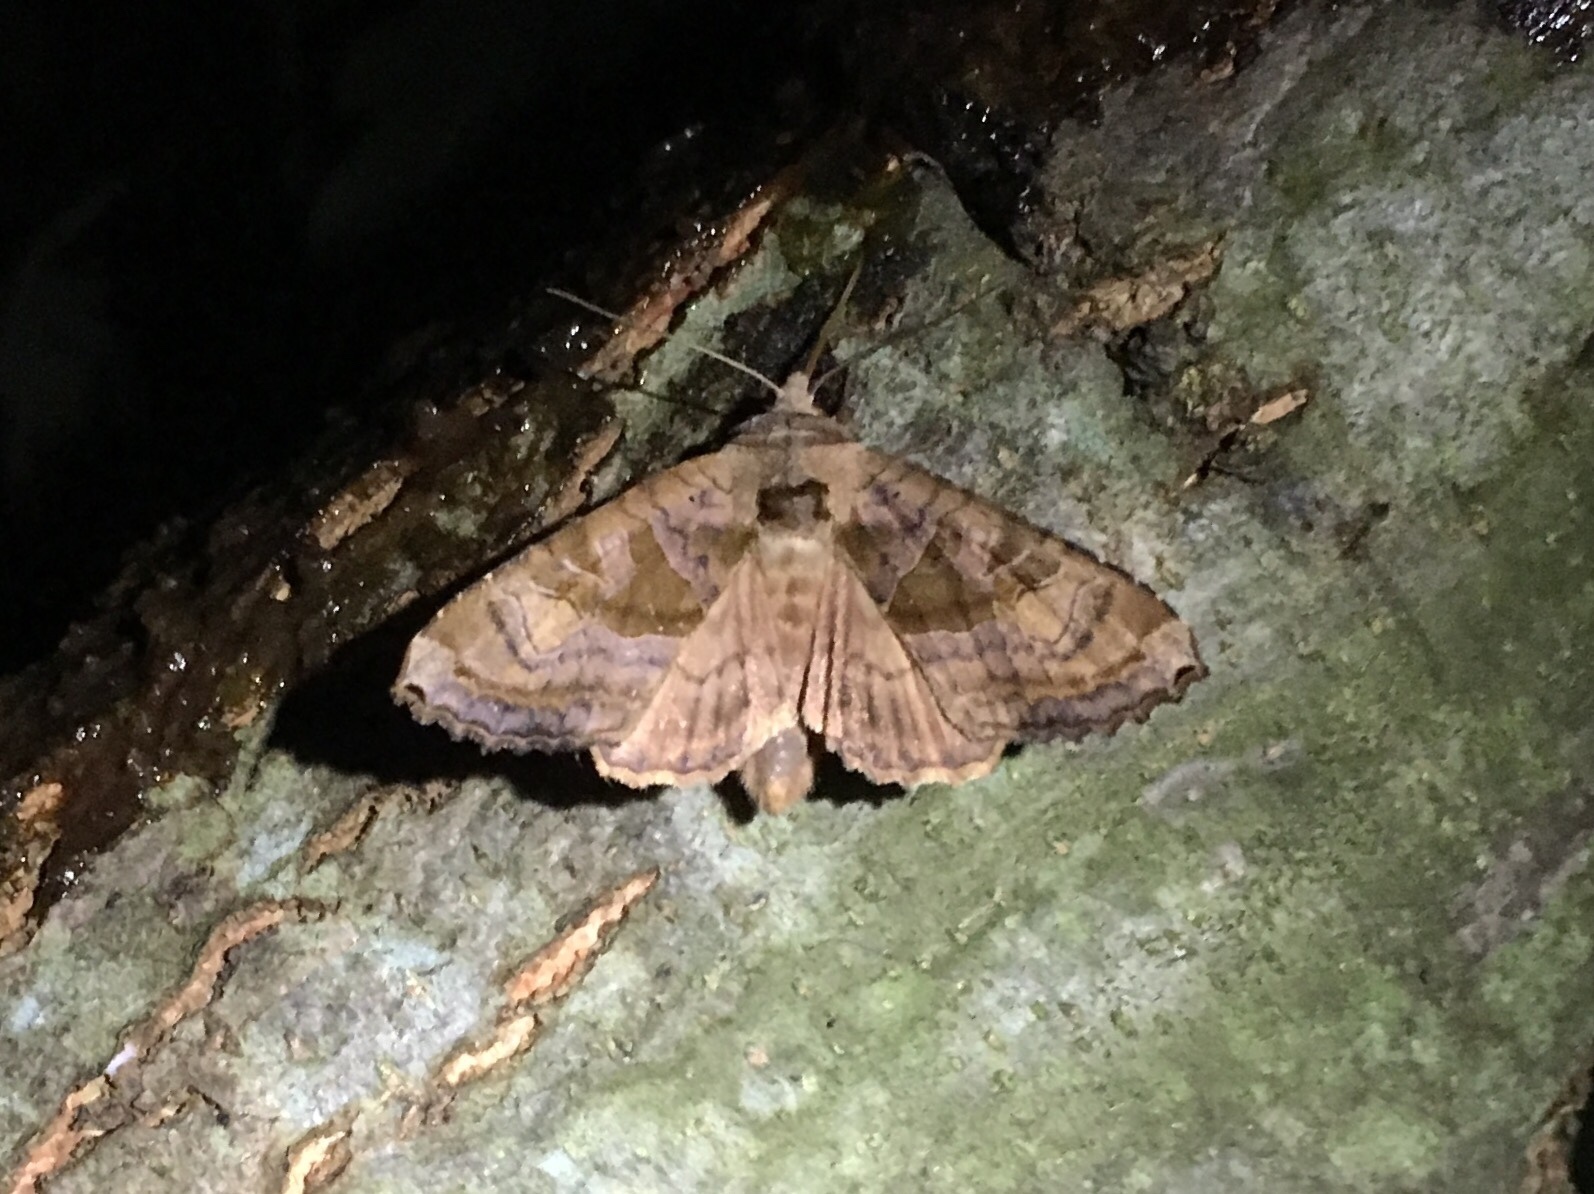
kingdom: Animalia
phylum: Arthropoda
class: Insecta
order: Lepidoptera
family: Noctuidae
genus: Phlogophora
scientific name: Phlogophora periculosa
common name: Brown angle shades
